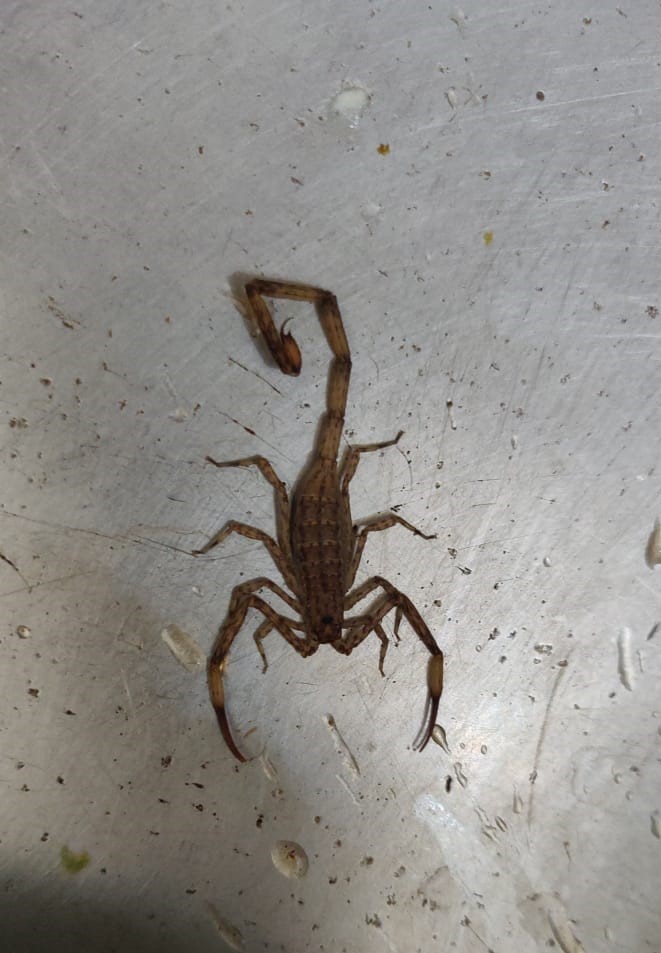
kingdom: Animalia
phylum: Arthropoda
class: Arachnida
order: Scorpiones
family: Buthidae
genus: Isometrus
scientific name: Isometrus maculatus
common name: Scorpions
